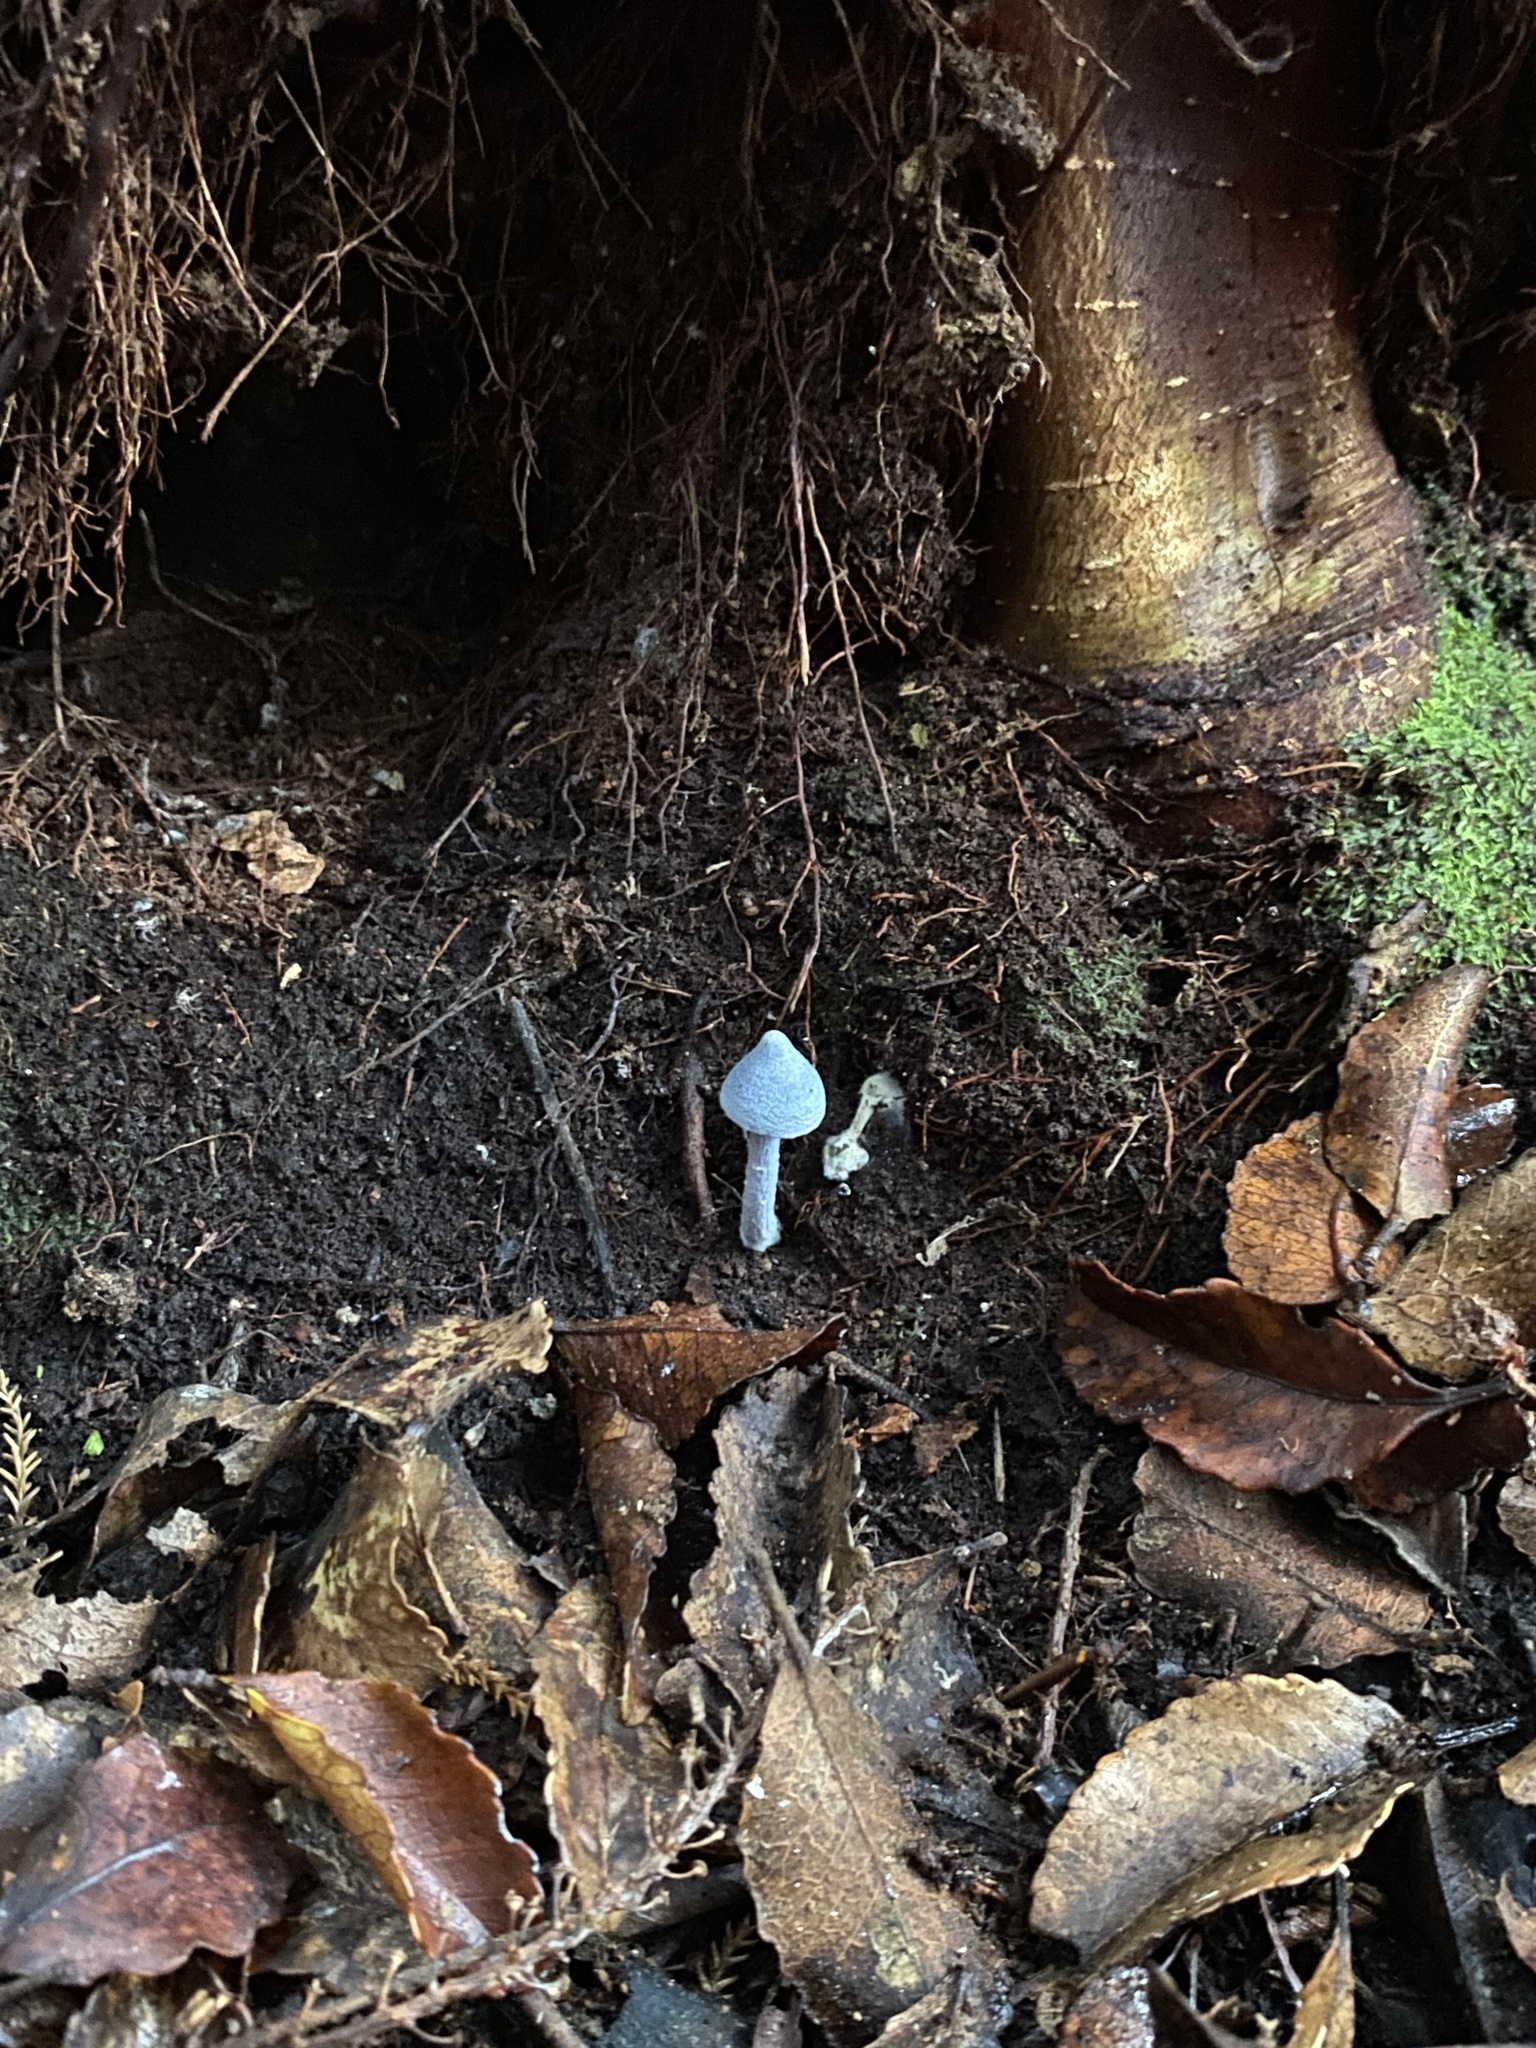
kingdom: Fungi
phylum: Basidiomycota
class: Agaricomycetes
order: Agaricales
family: Entolomataceae
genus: Entoloma
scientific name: Entoloma hochstetteri
